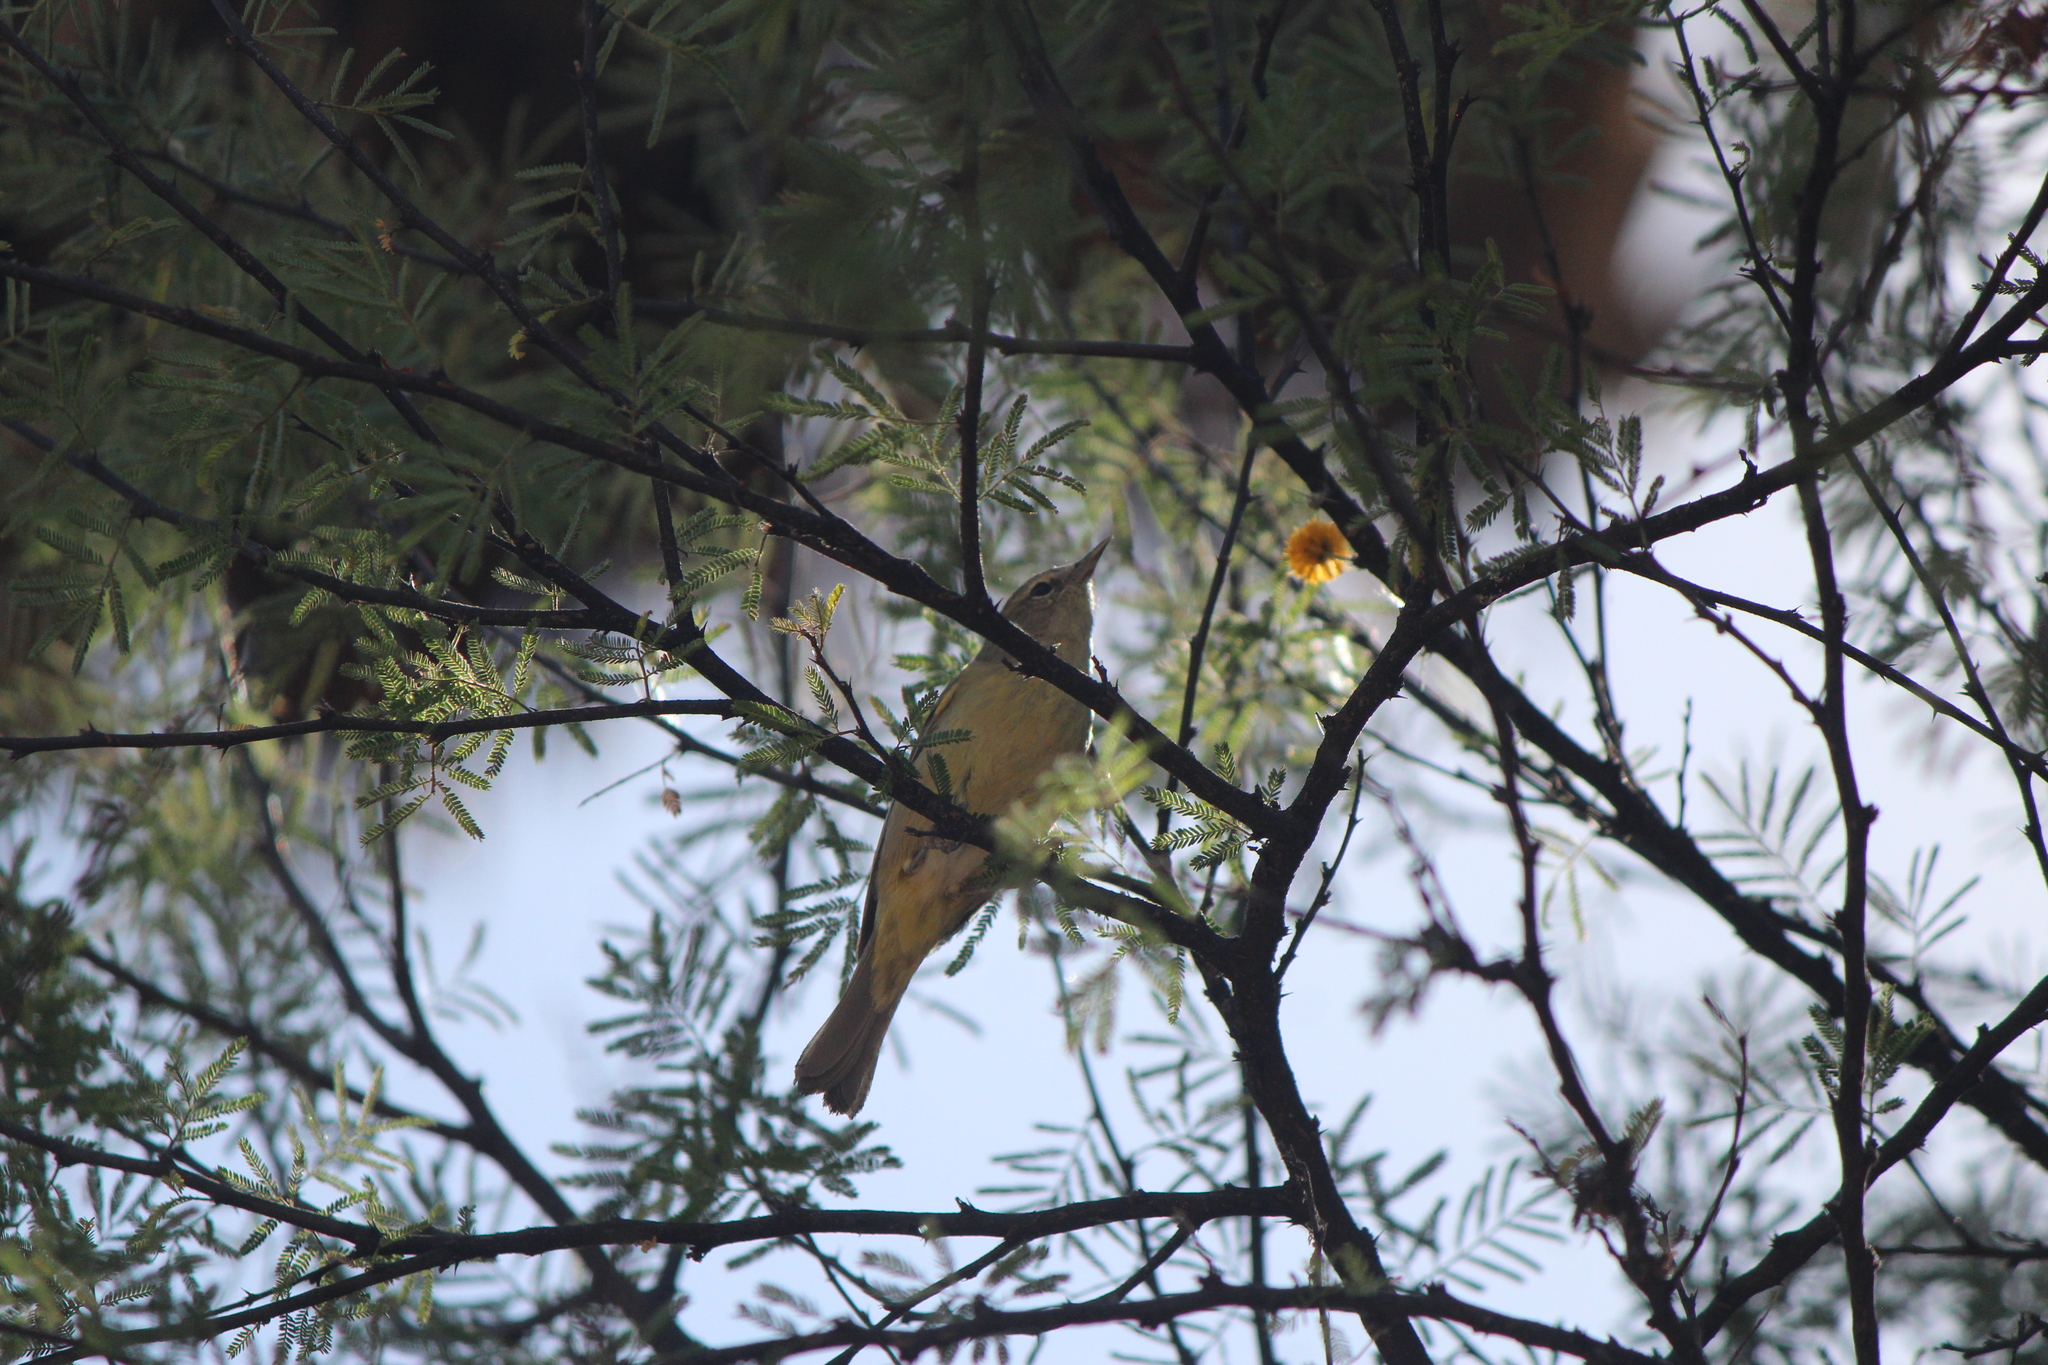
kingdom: Animalia
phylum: Chordata
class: Aves
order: Passeriformes
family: Parulidae
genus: Leiothlypis
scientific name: Leiothlypis celata
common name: Orange-crowned warbler
